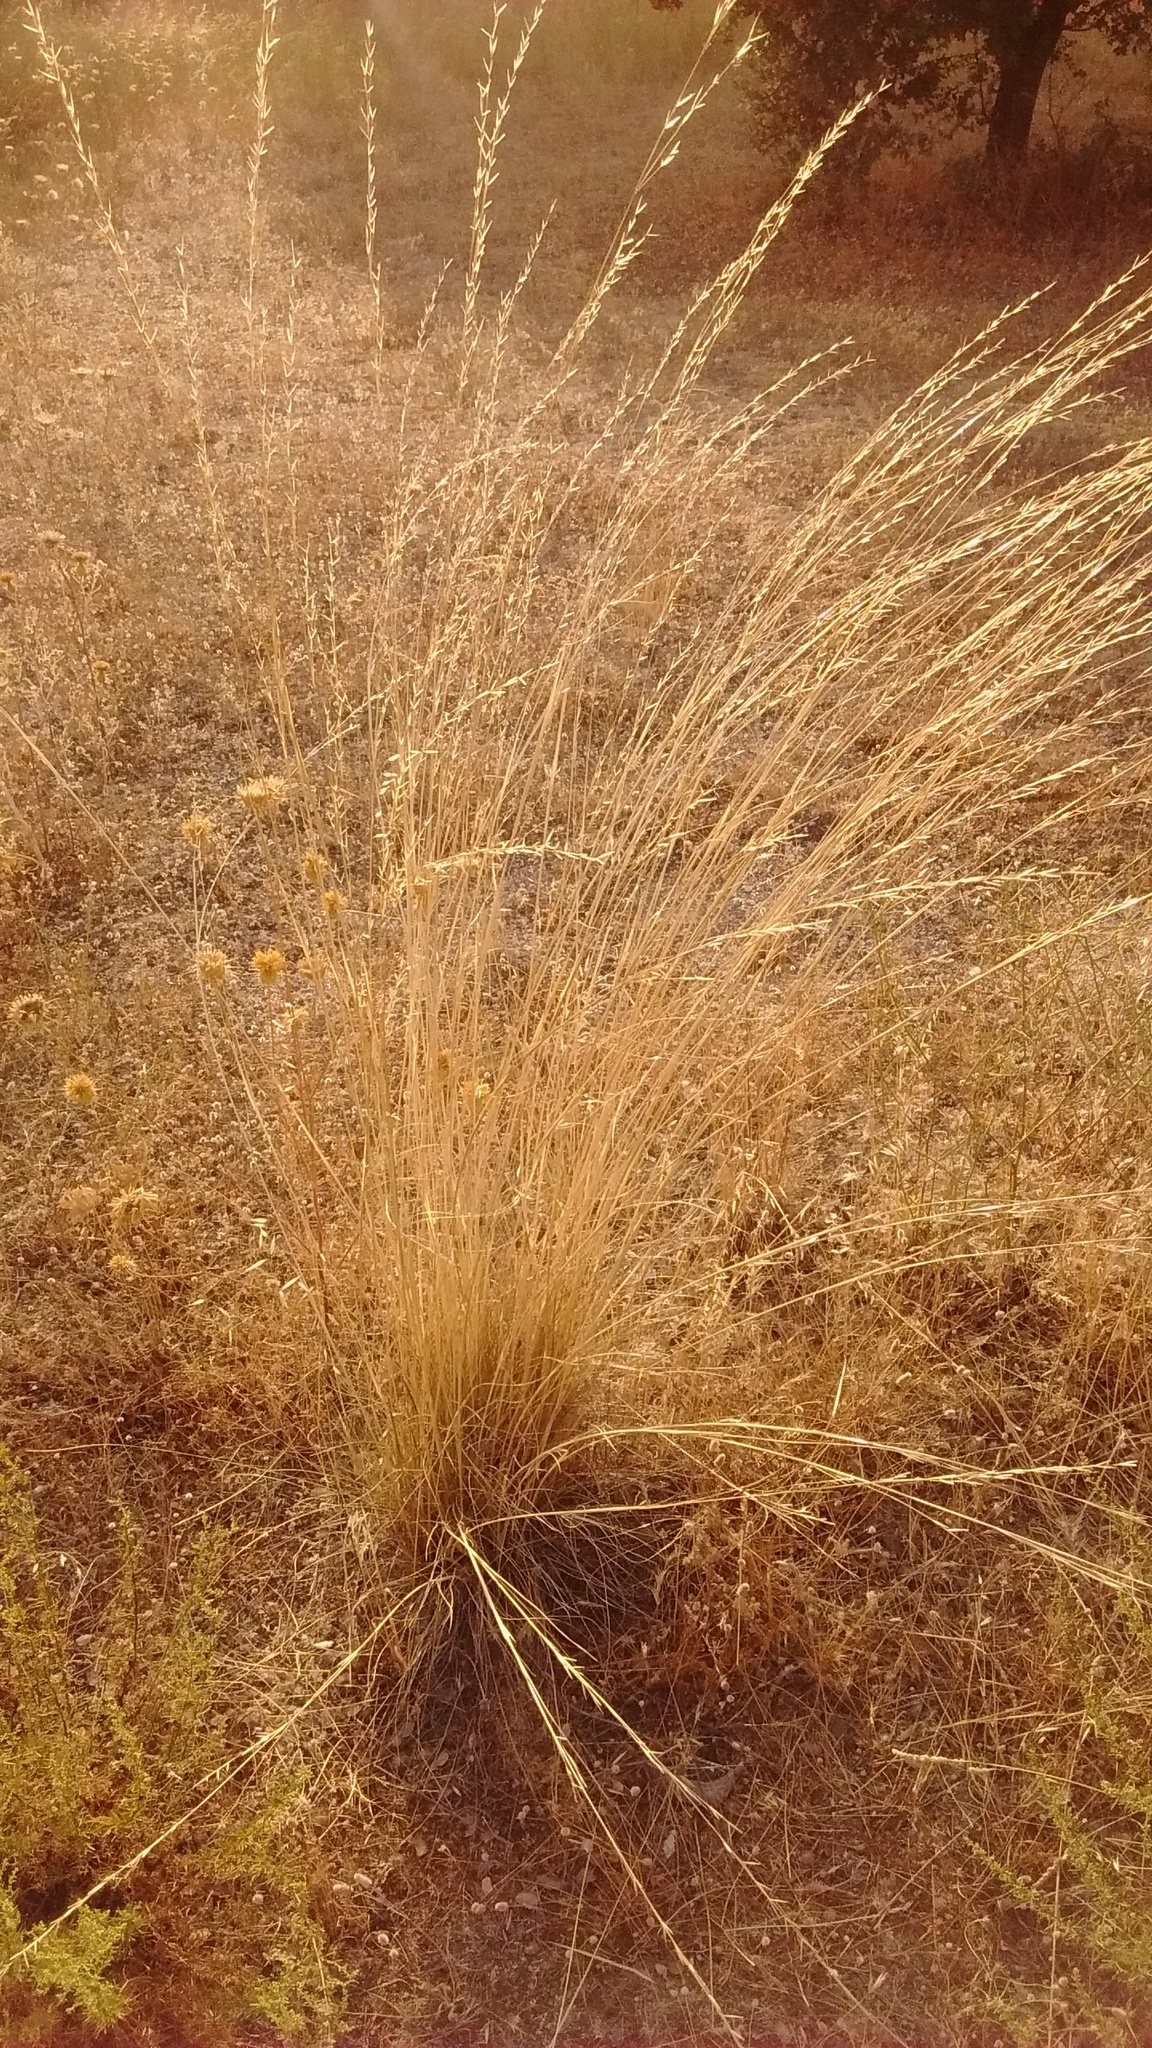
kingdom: Plantae
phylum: Tracheophyta
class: Liliopsida
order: Poales
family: Poaceae
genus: Stipa
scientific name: Stipa lagascae
